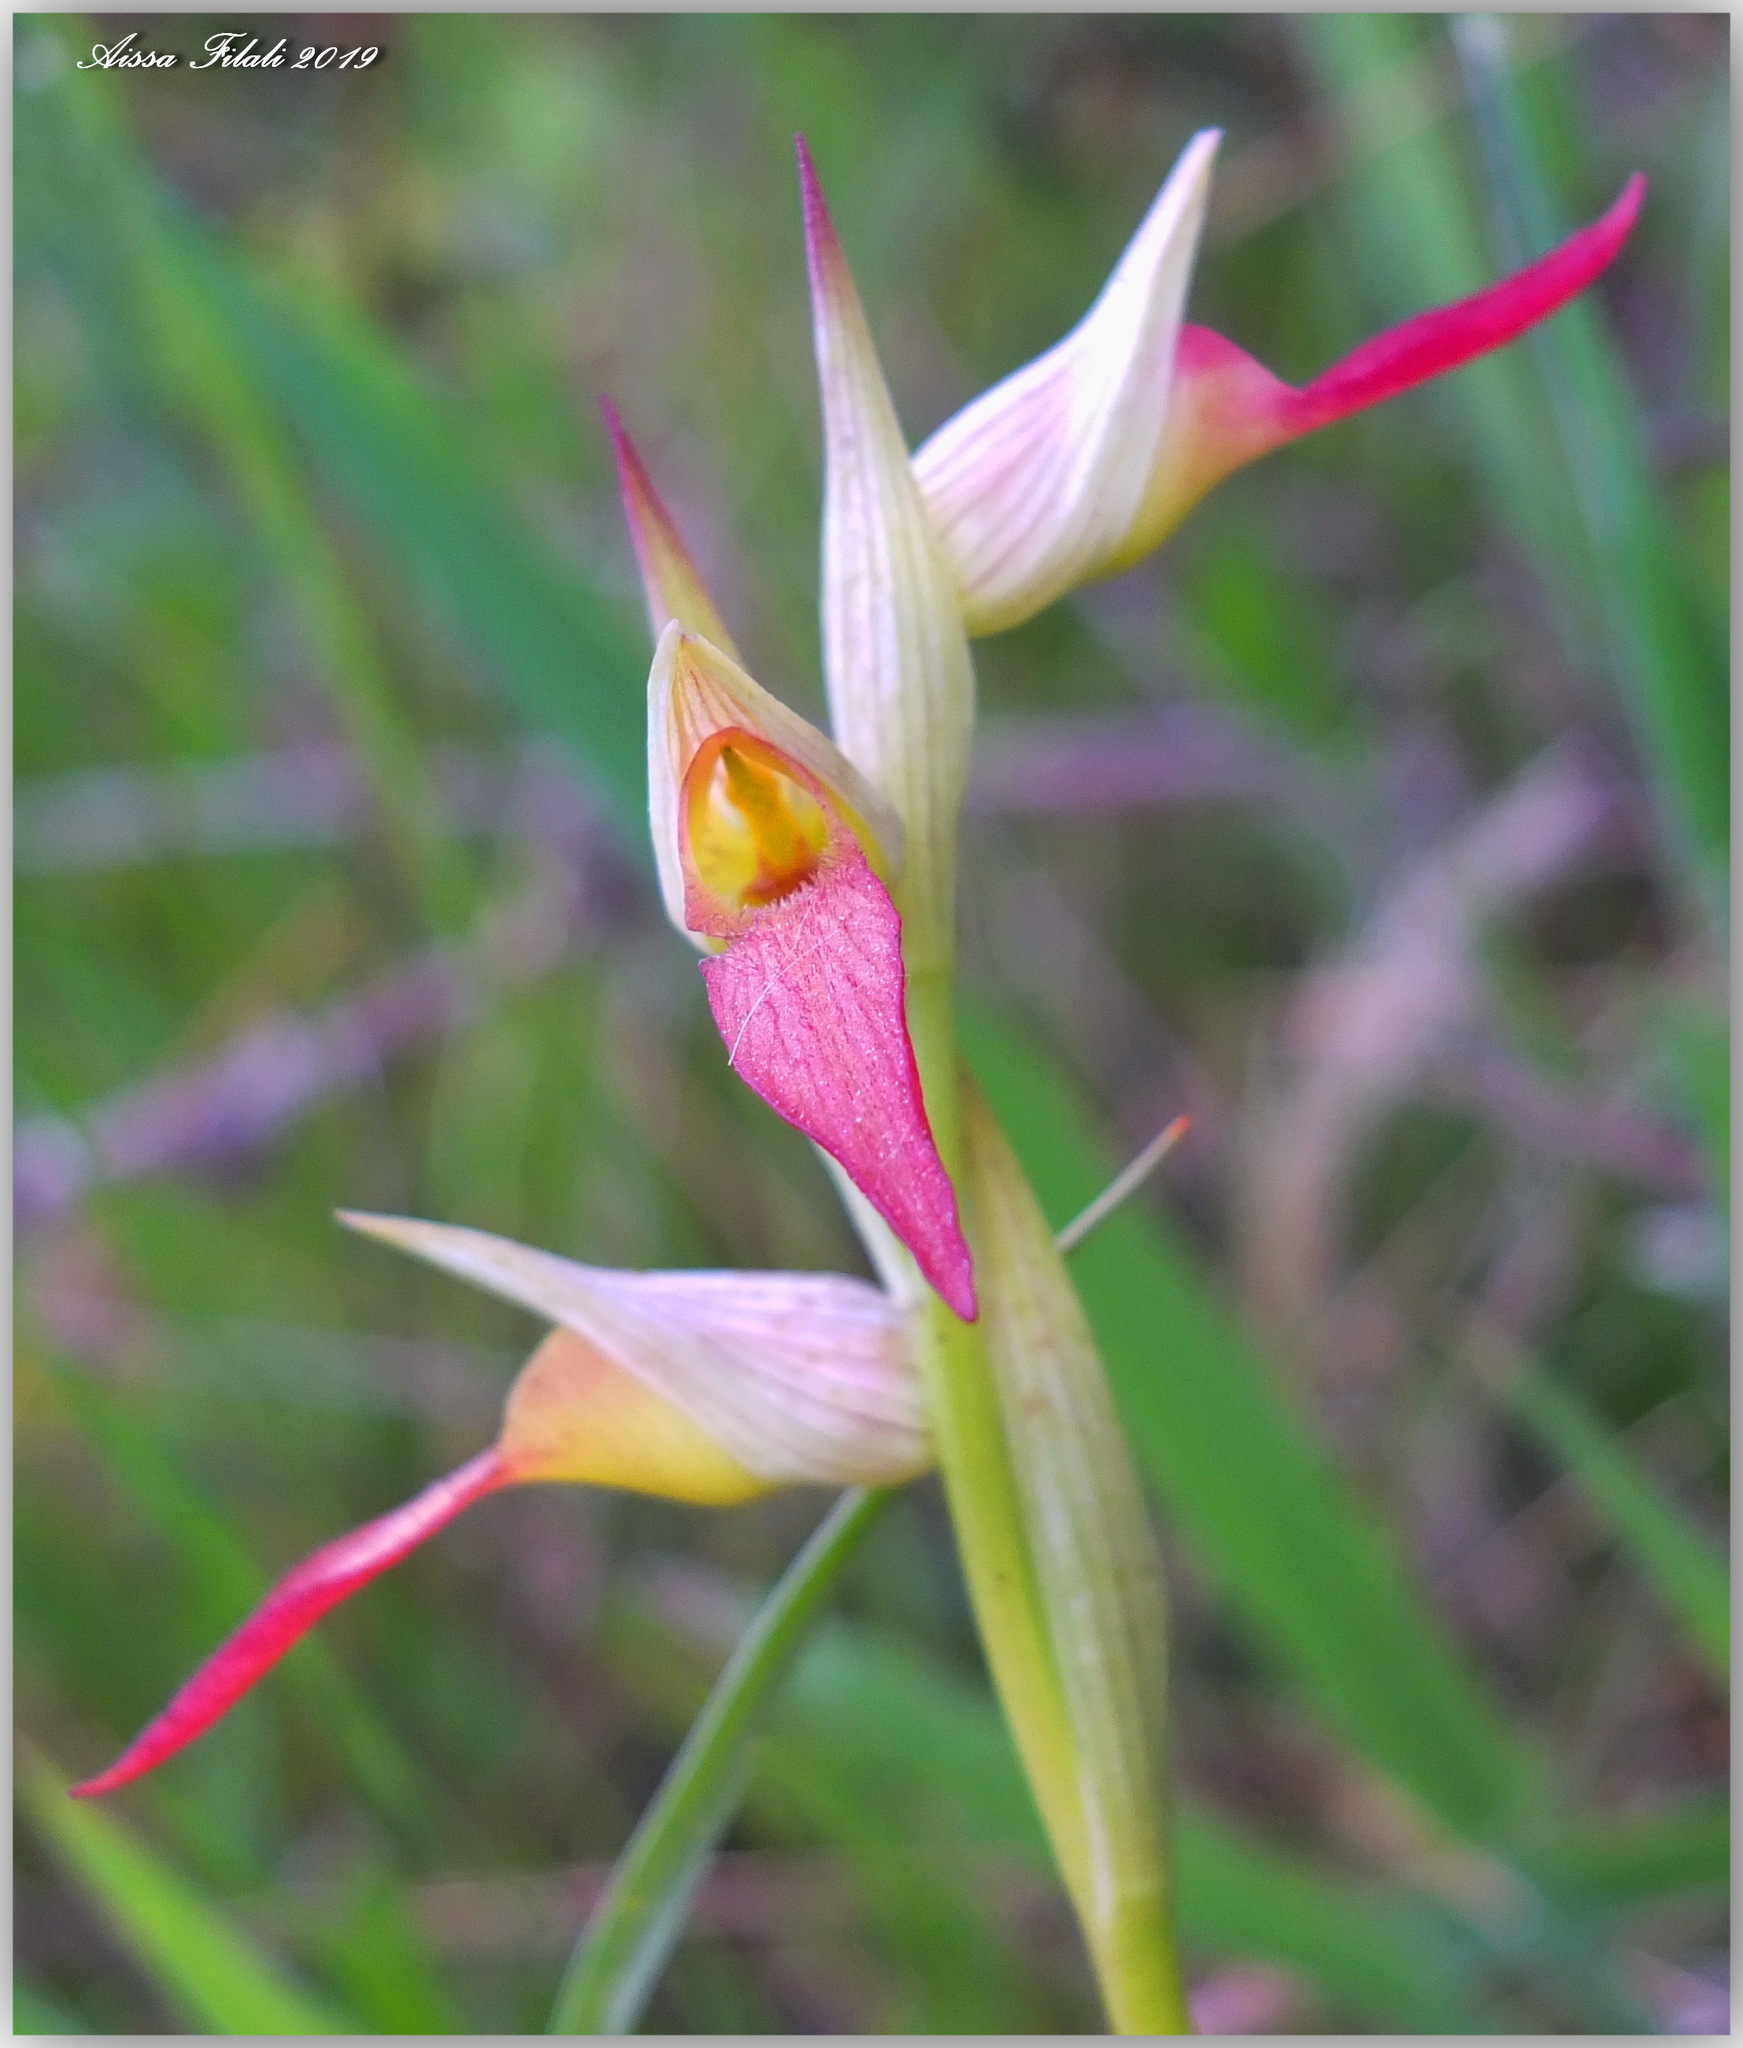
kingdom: Plantae
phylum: Tracheophyta
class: Liliopsida
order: Asparagales
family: Orchidaceae
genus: Serapias
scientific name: Serapias
